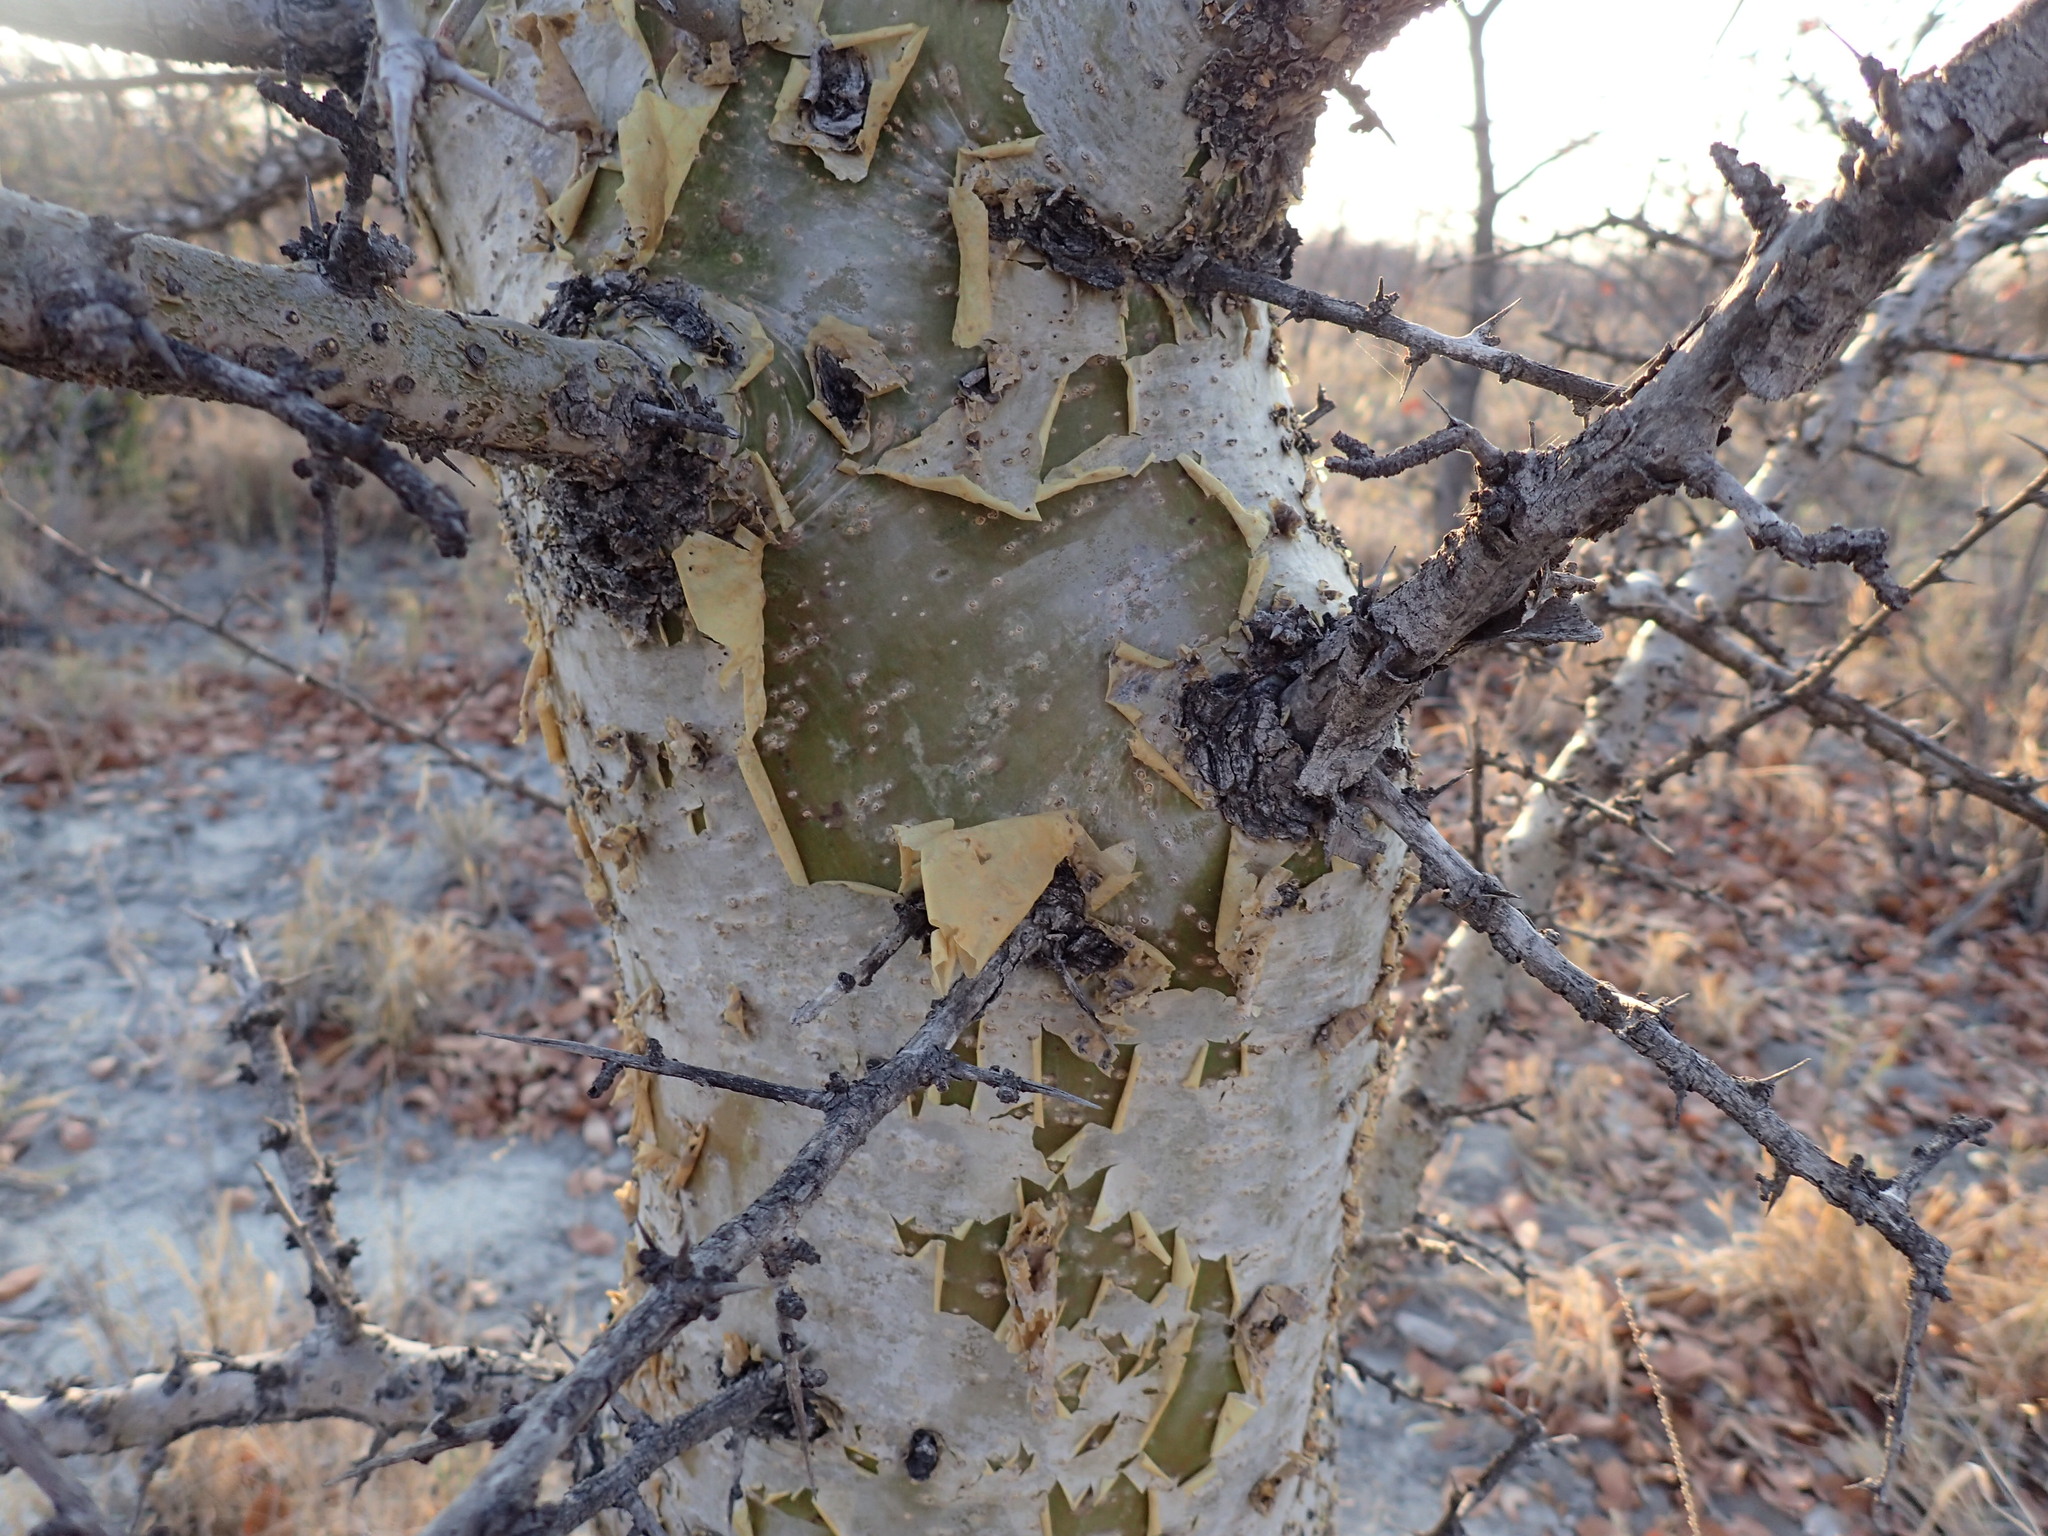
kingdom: Plantae
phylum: Tracheophyta
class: Magnoliopsida
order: Sapindales
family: Burseraceae
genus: Commiphora
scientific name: Commiphora glandulosa
